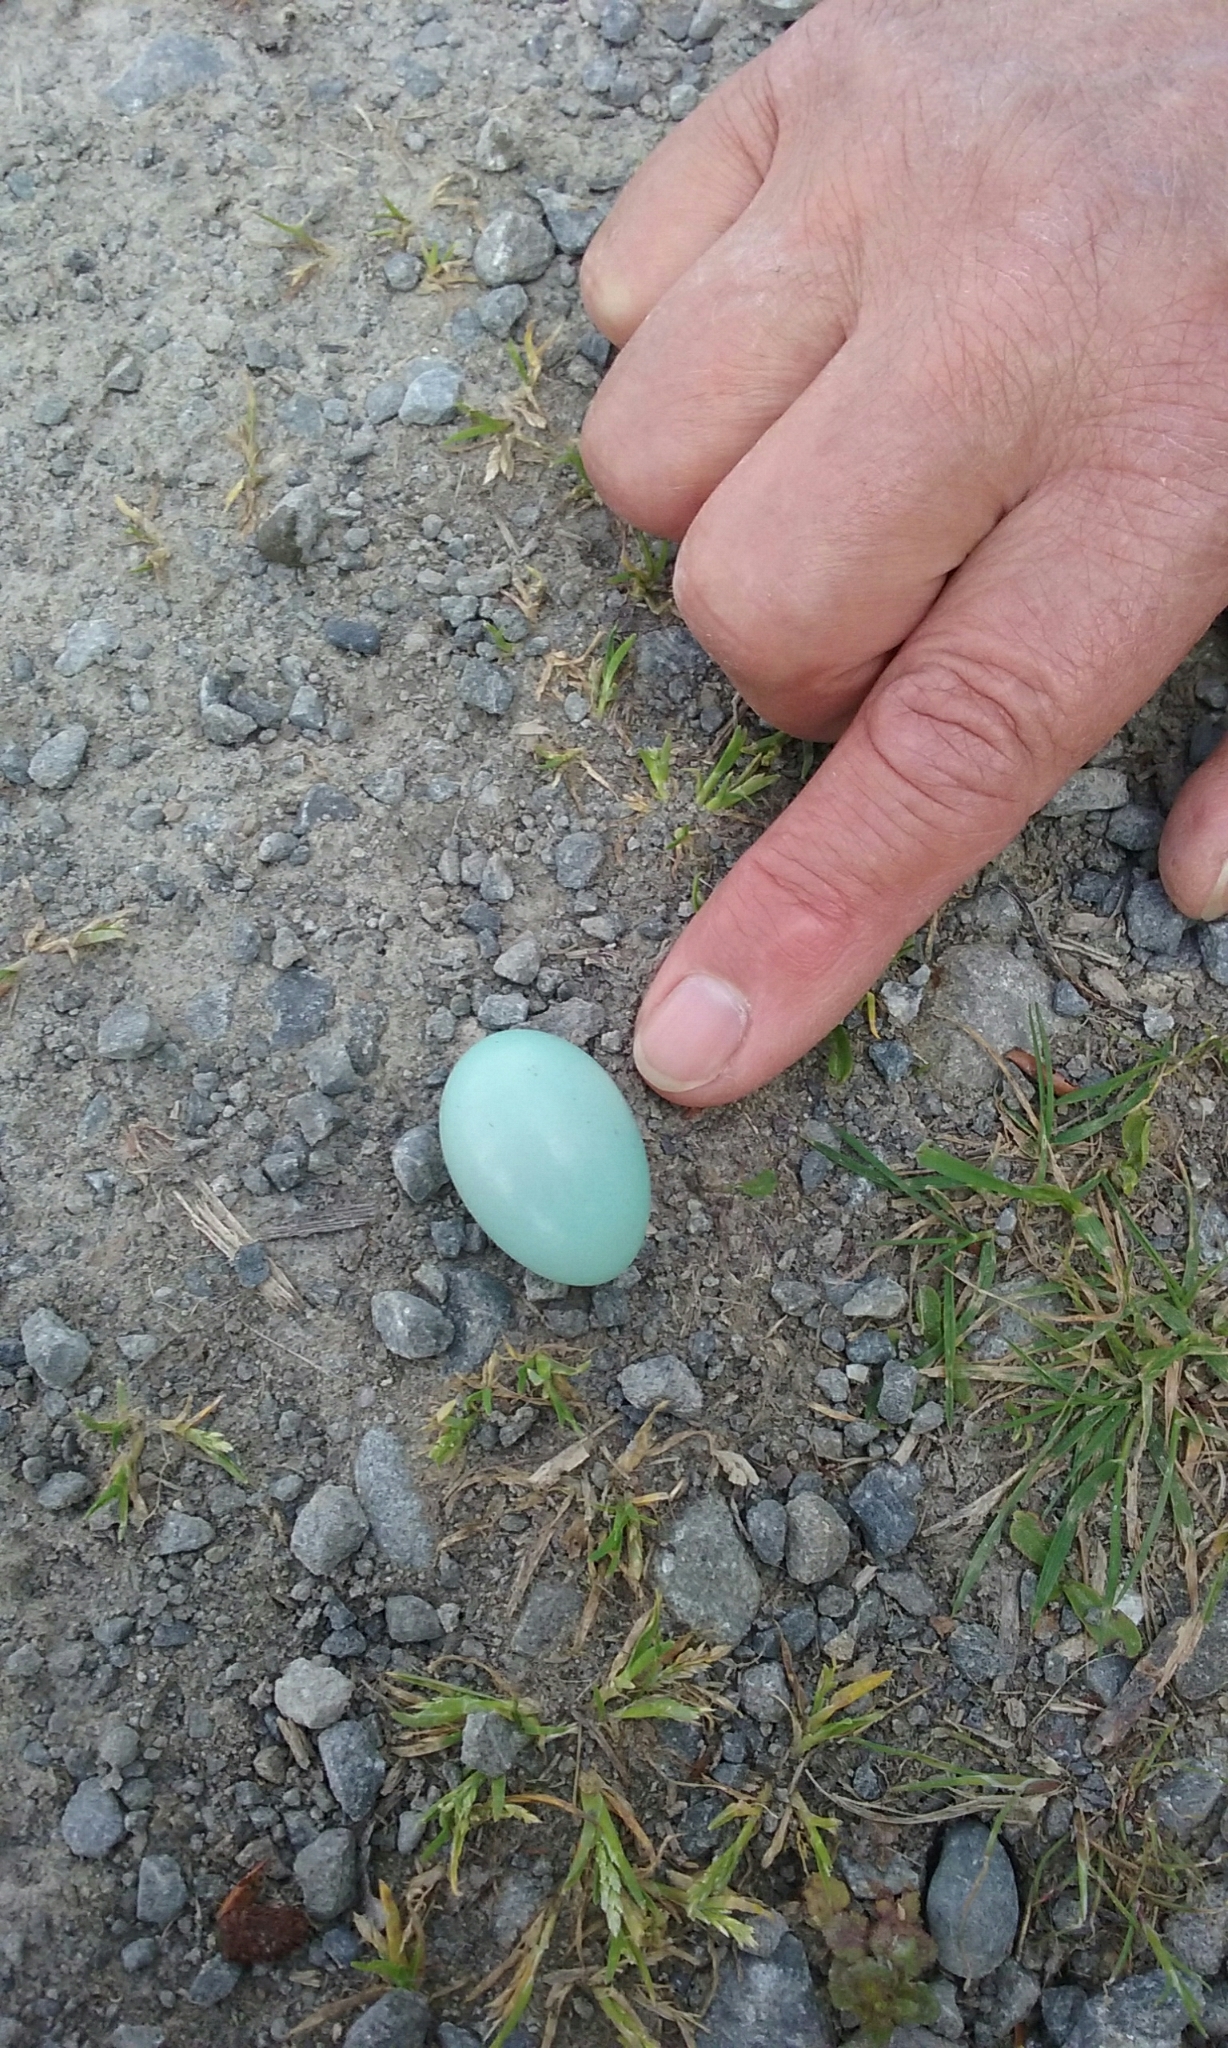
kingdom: Animalia
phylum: Chordata
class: Aves
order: Passeriformes
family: Sturnidae
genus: Sturnus
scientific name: Sturnus vulgaris
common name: Common starling
